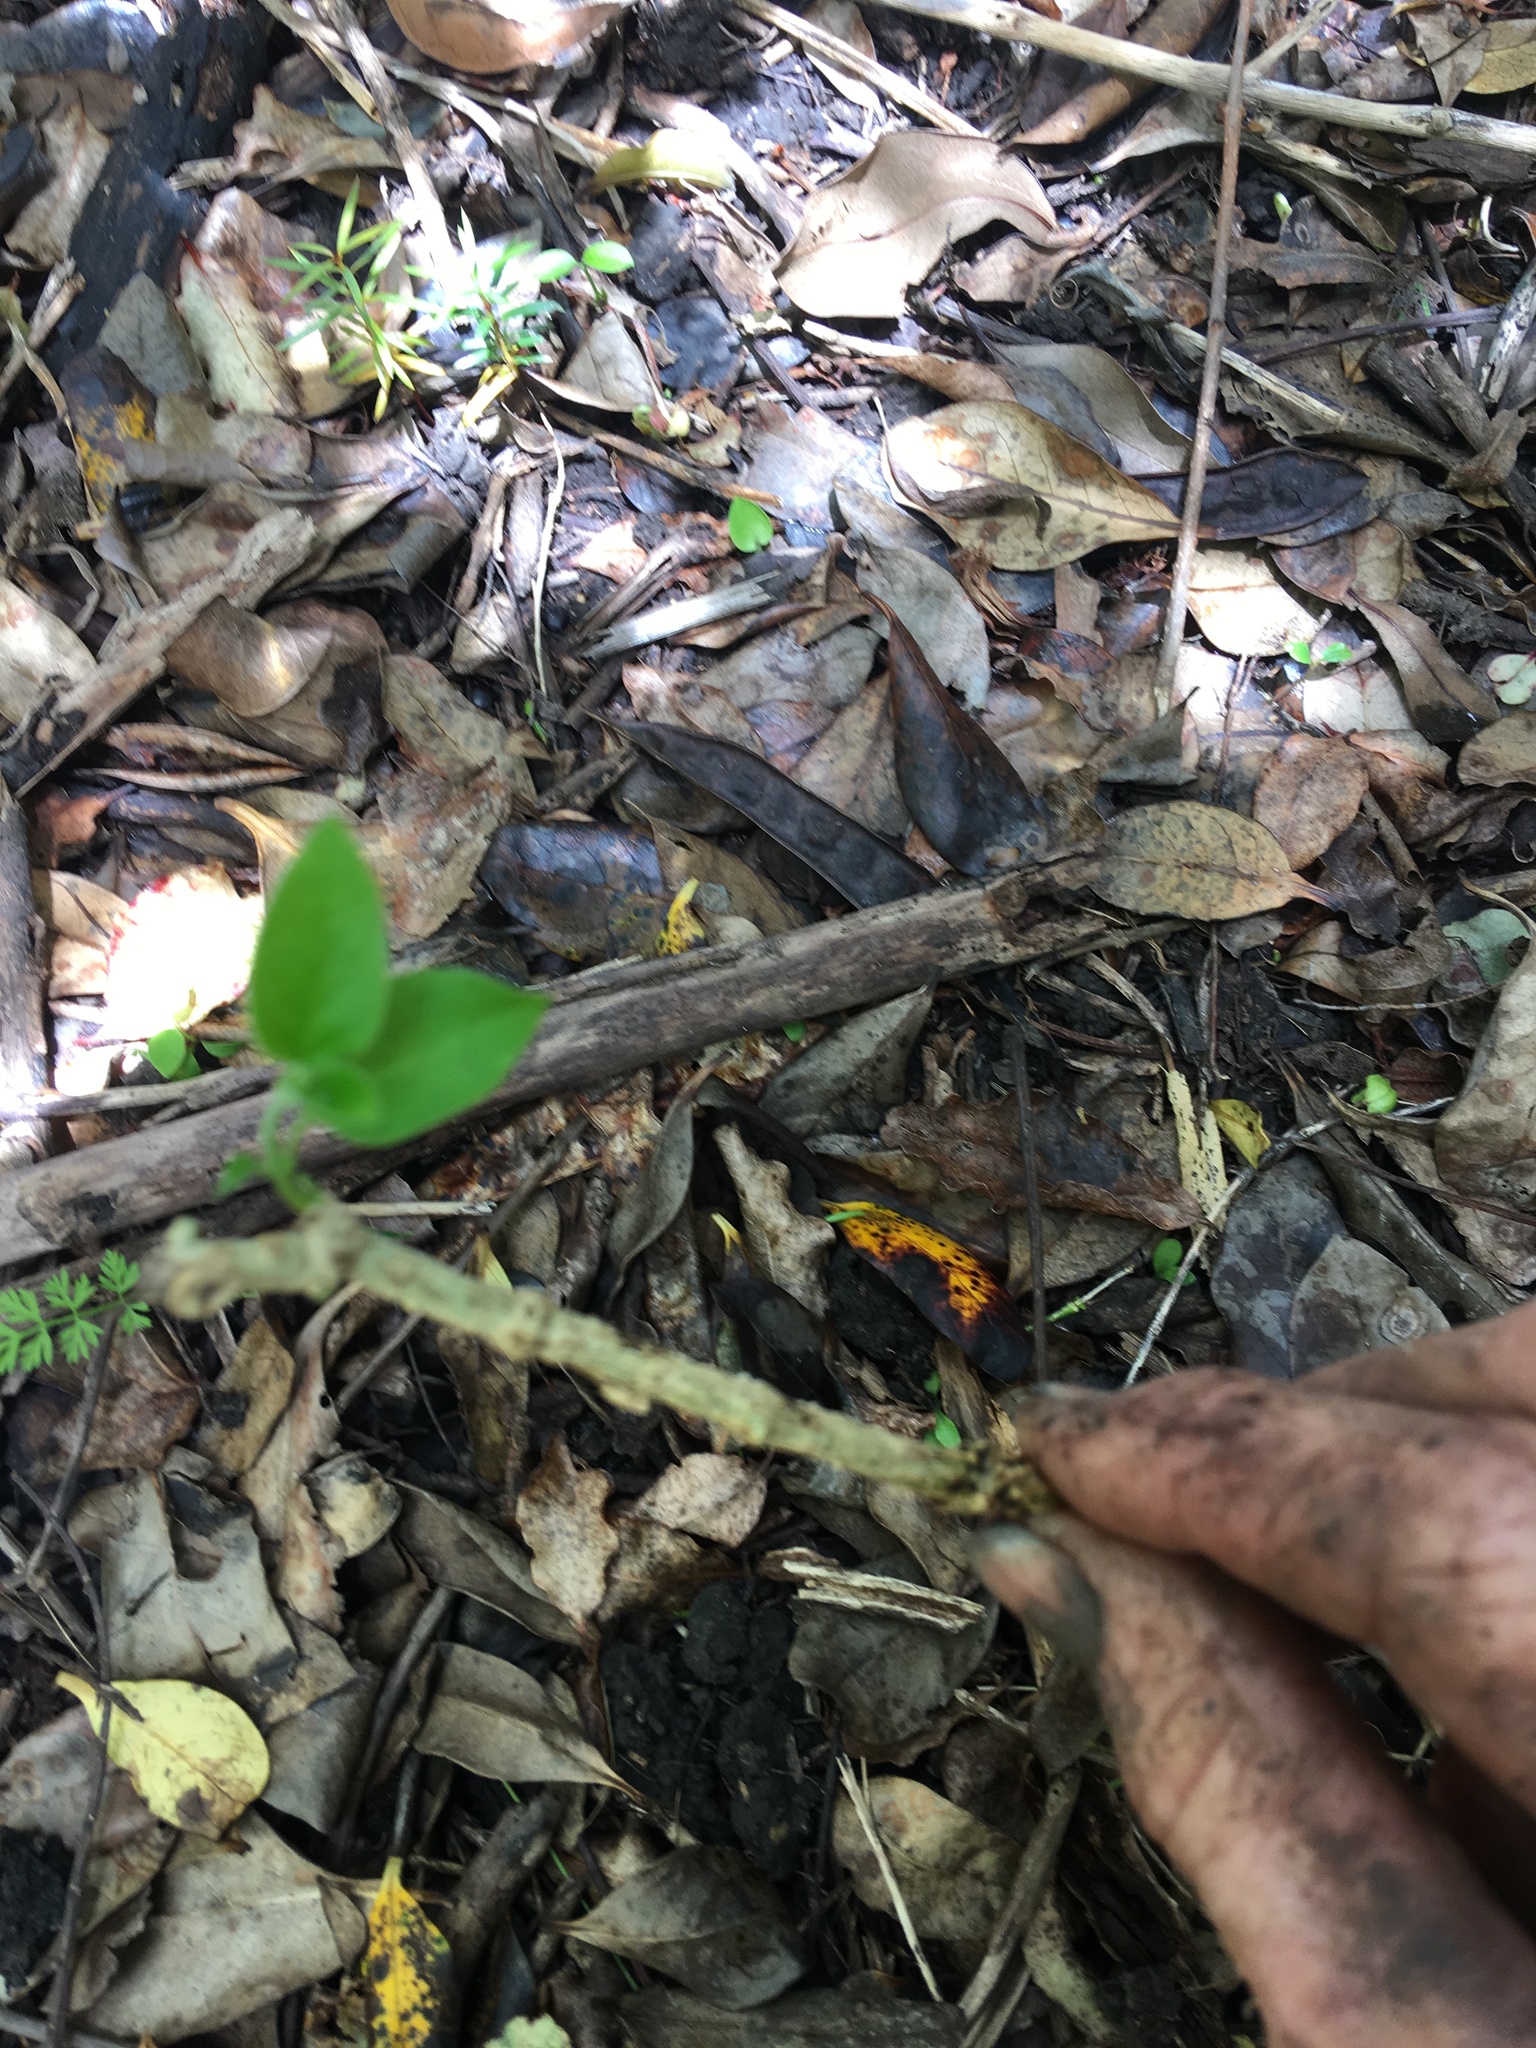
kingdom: Plantae
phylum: Tracheophyta
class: Magnoliopsida
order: Gentianales
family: Apocynaceae
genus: Araujia
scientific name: Araujia sericifera
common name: White bladderflower
